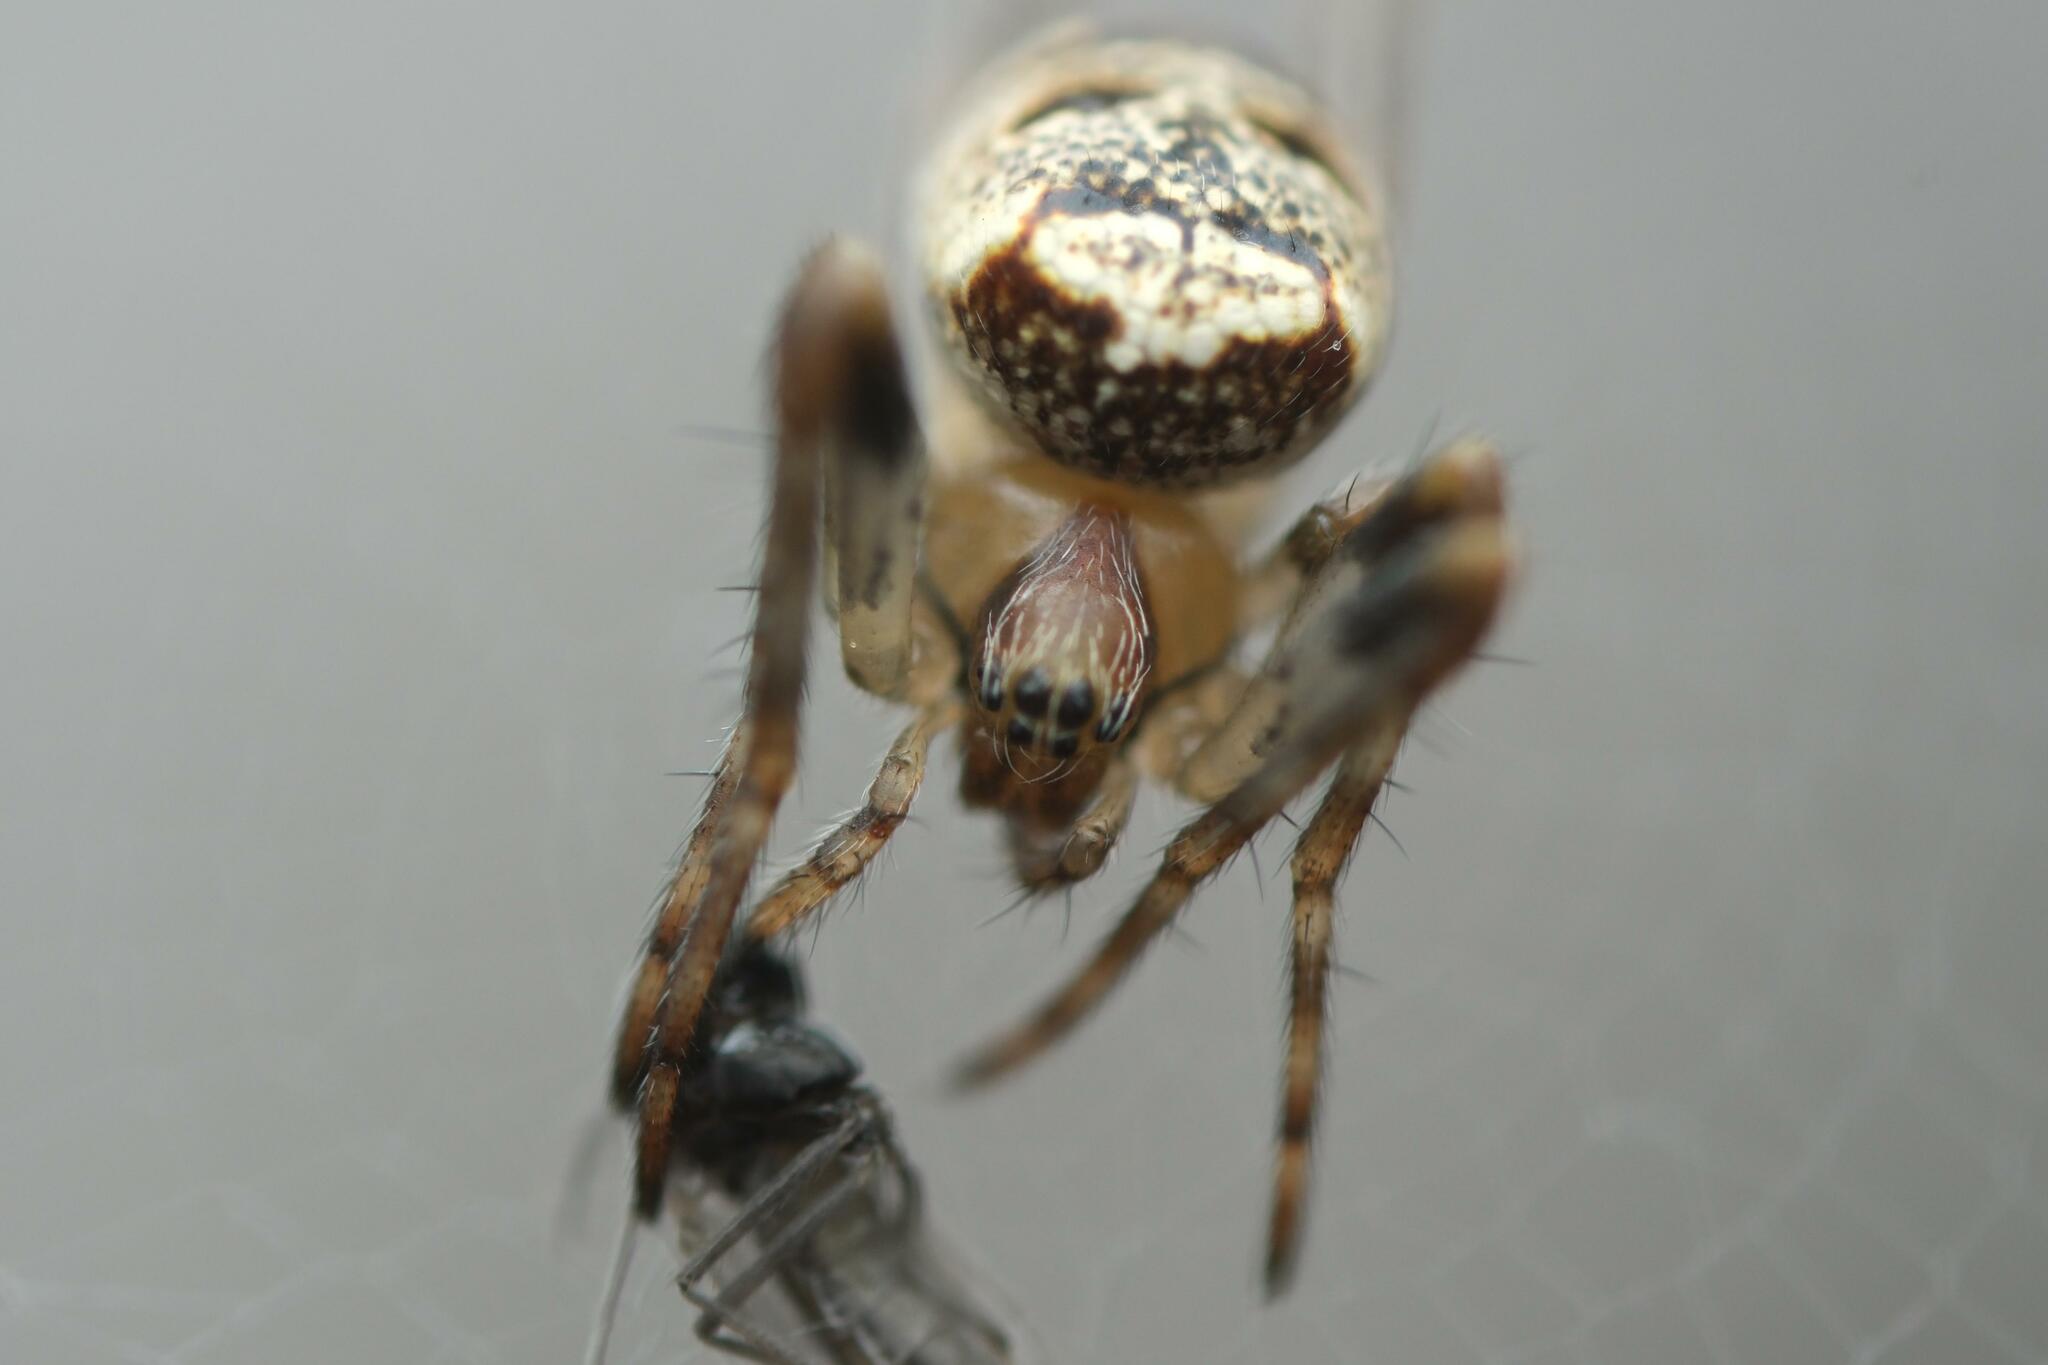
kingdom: Animalia
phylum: Arthropoda
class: Arachnida
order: Araneae
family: Araneidae
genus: Zilla
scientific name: Zilla diodia
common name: Zilla diodia
